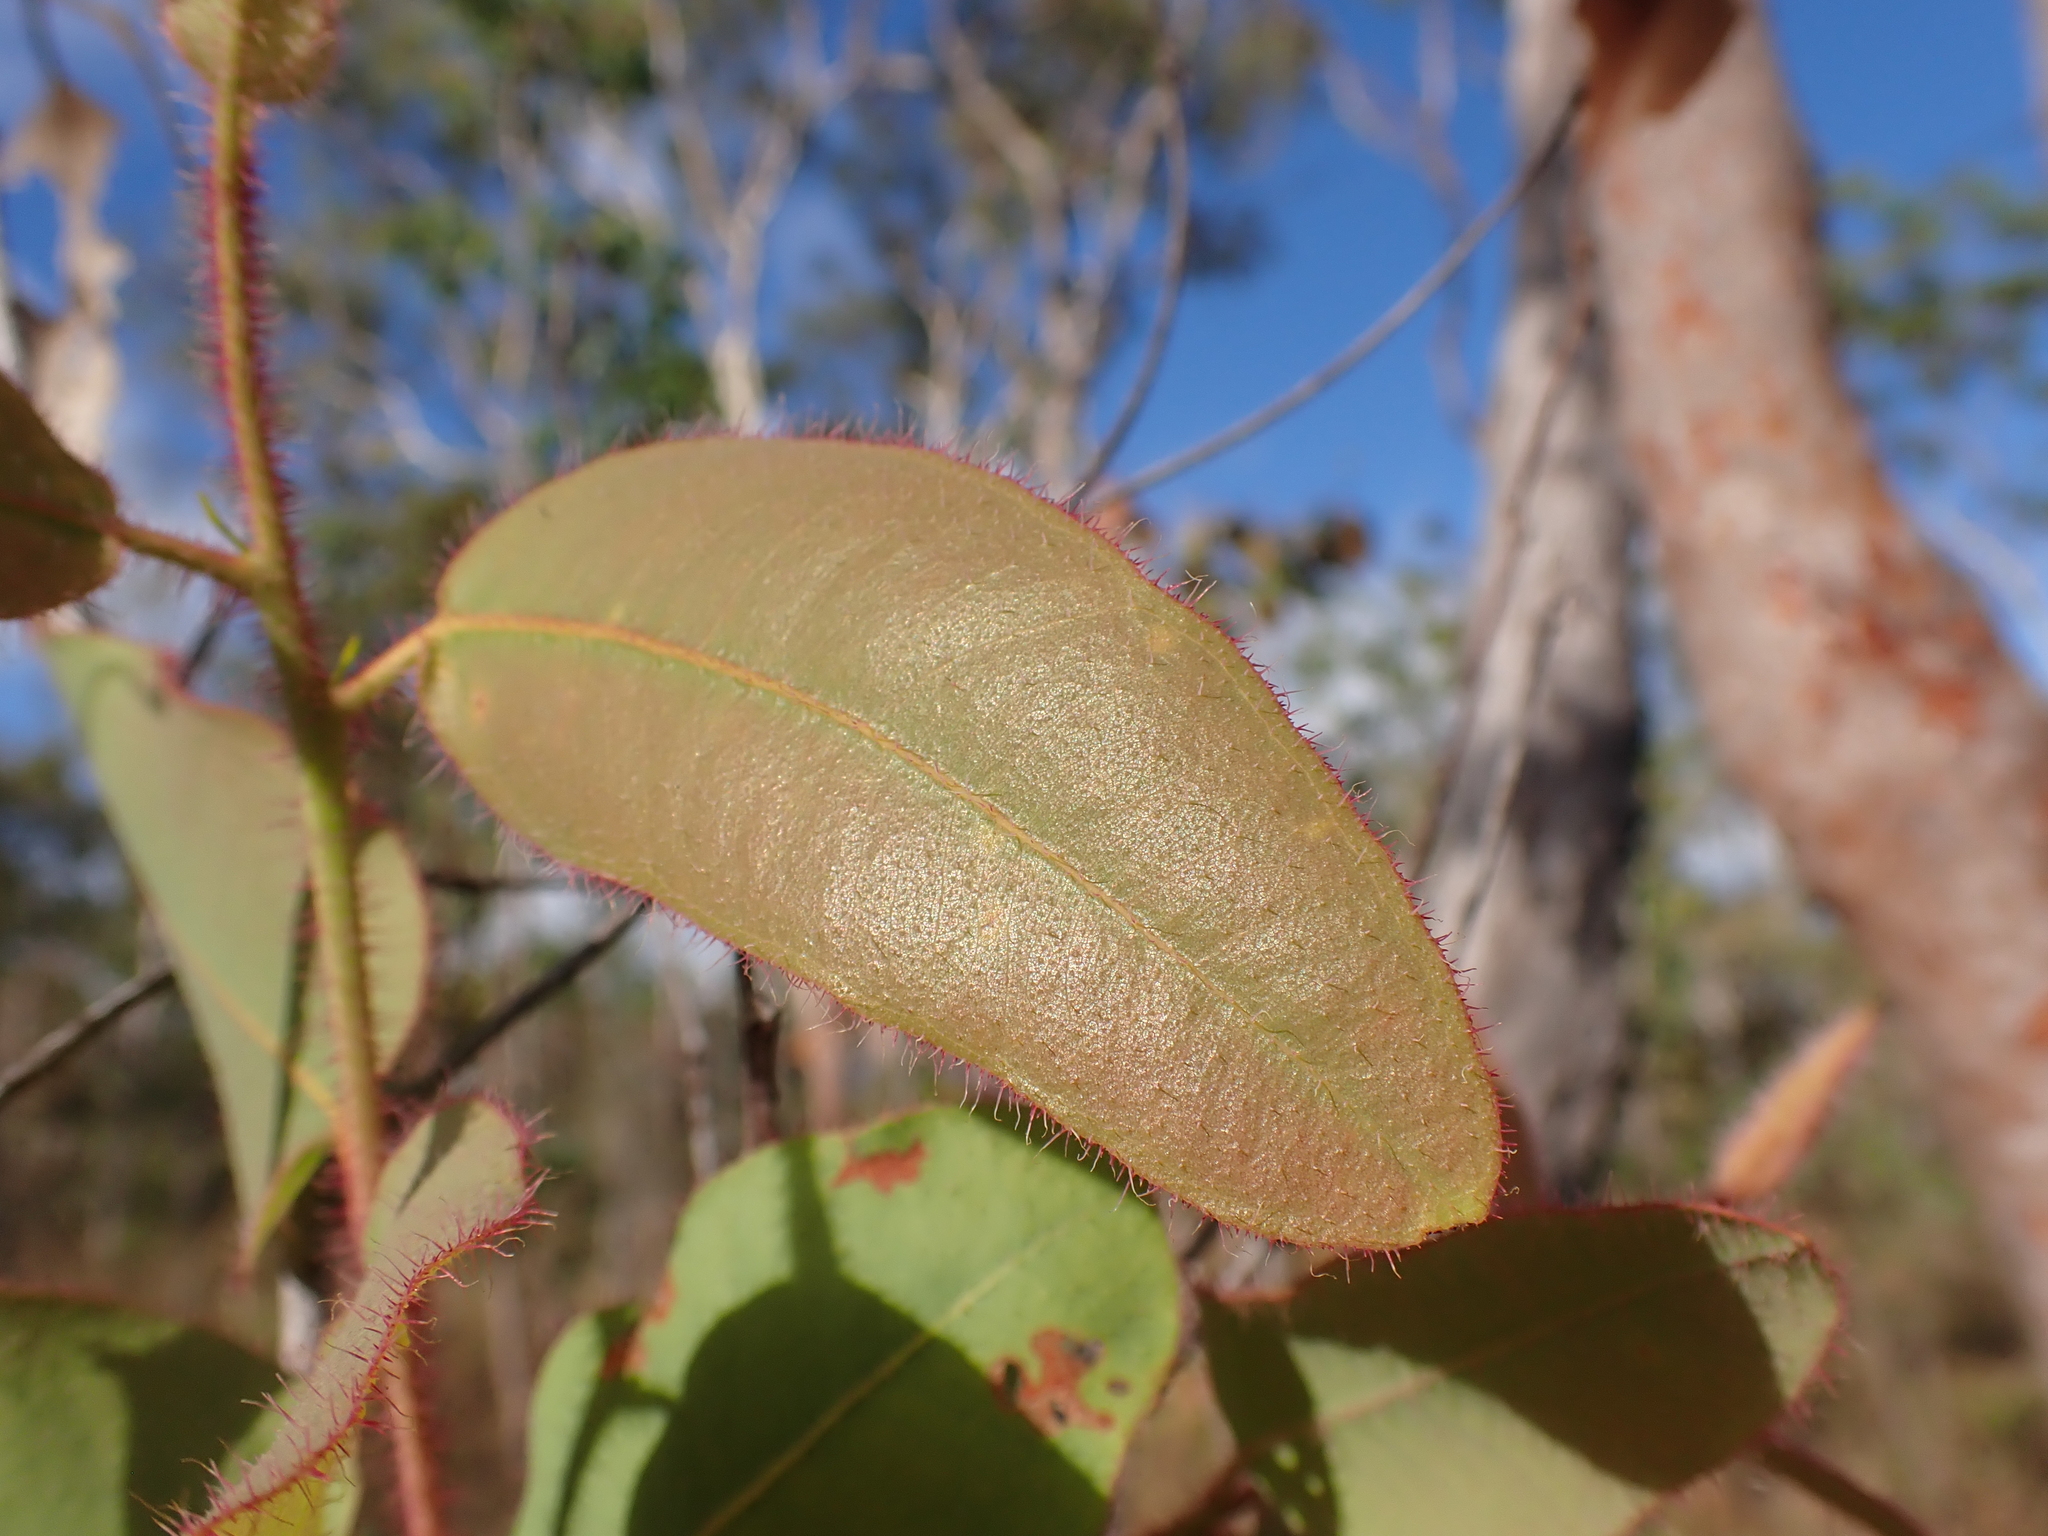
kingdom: Plantae
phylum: Tracheophyta
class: Magnoliopsida
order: Myrtales
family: Myrtaceae
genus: Corymbia
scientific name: Corymbia bleeseri
